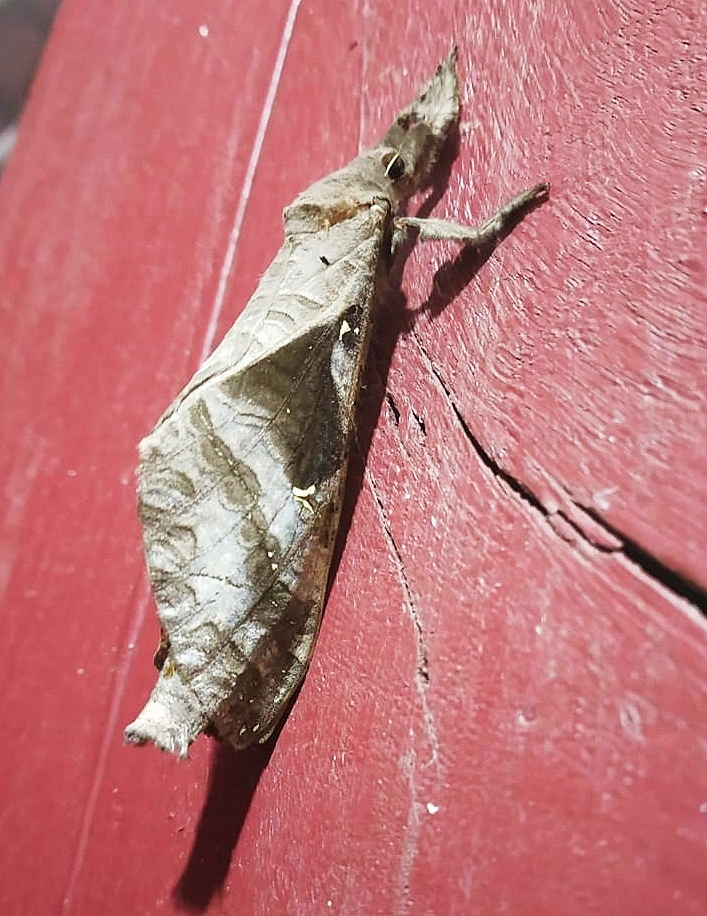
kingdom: Animalia
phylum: Arthropoda
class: Insecta
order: Lepidoptera
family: Hepialidae
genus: Endoclita
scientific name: Endoclita malabaricus
